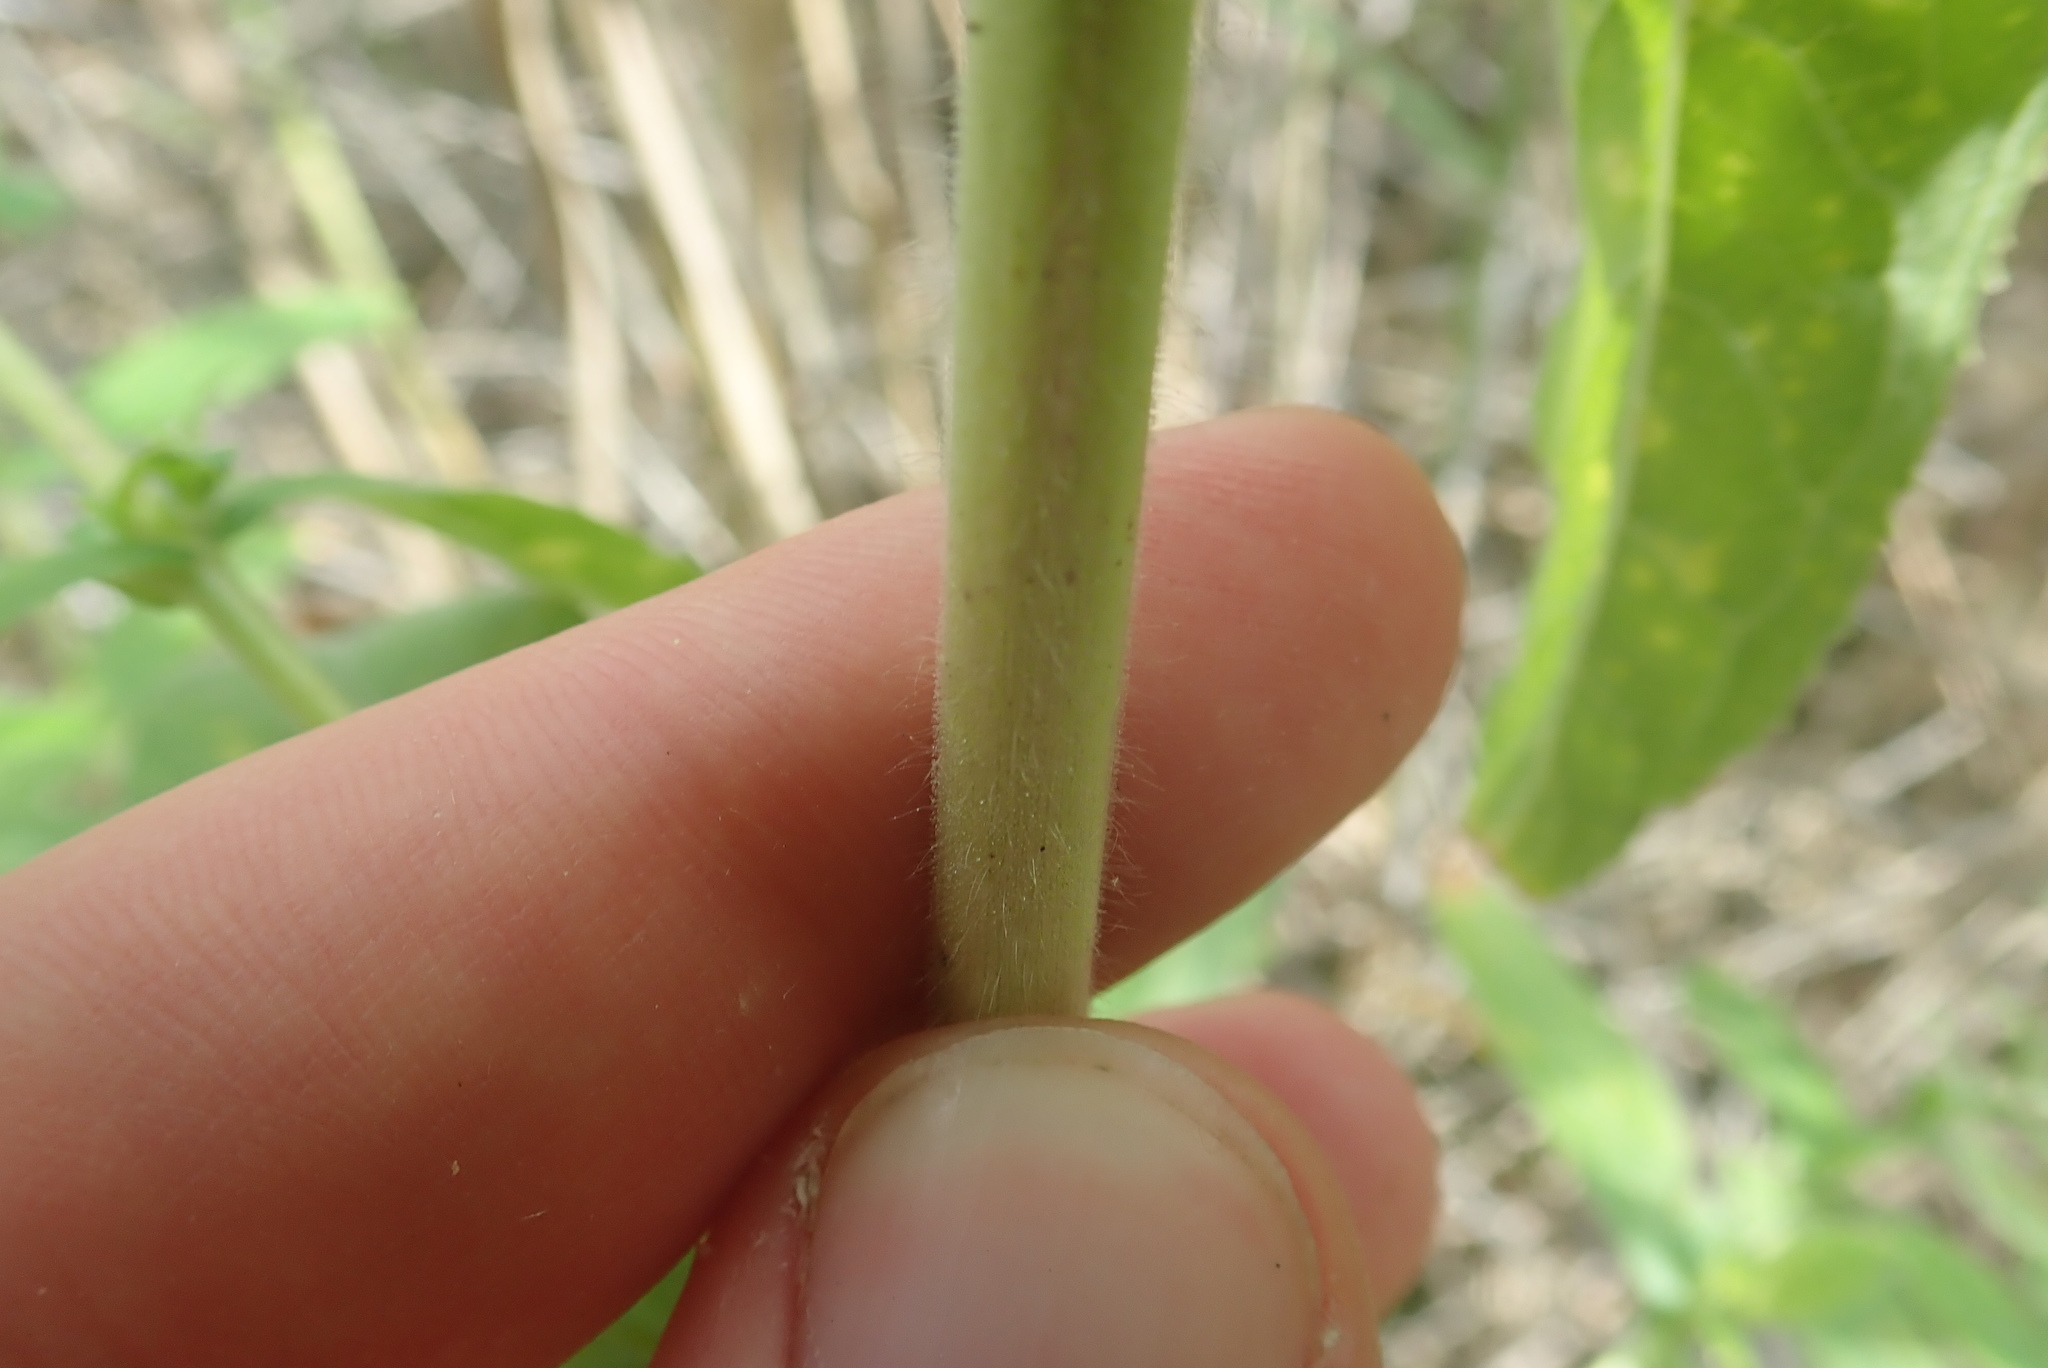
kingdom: Plantae
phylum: Tracheophyta
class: Magnoliopsida
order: Myrtales
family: Onagraceae
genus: Epilobium
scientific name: Epilobium hirsutum
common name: Great willowherb
